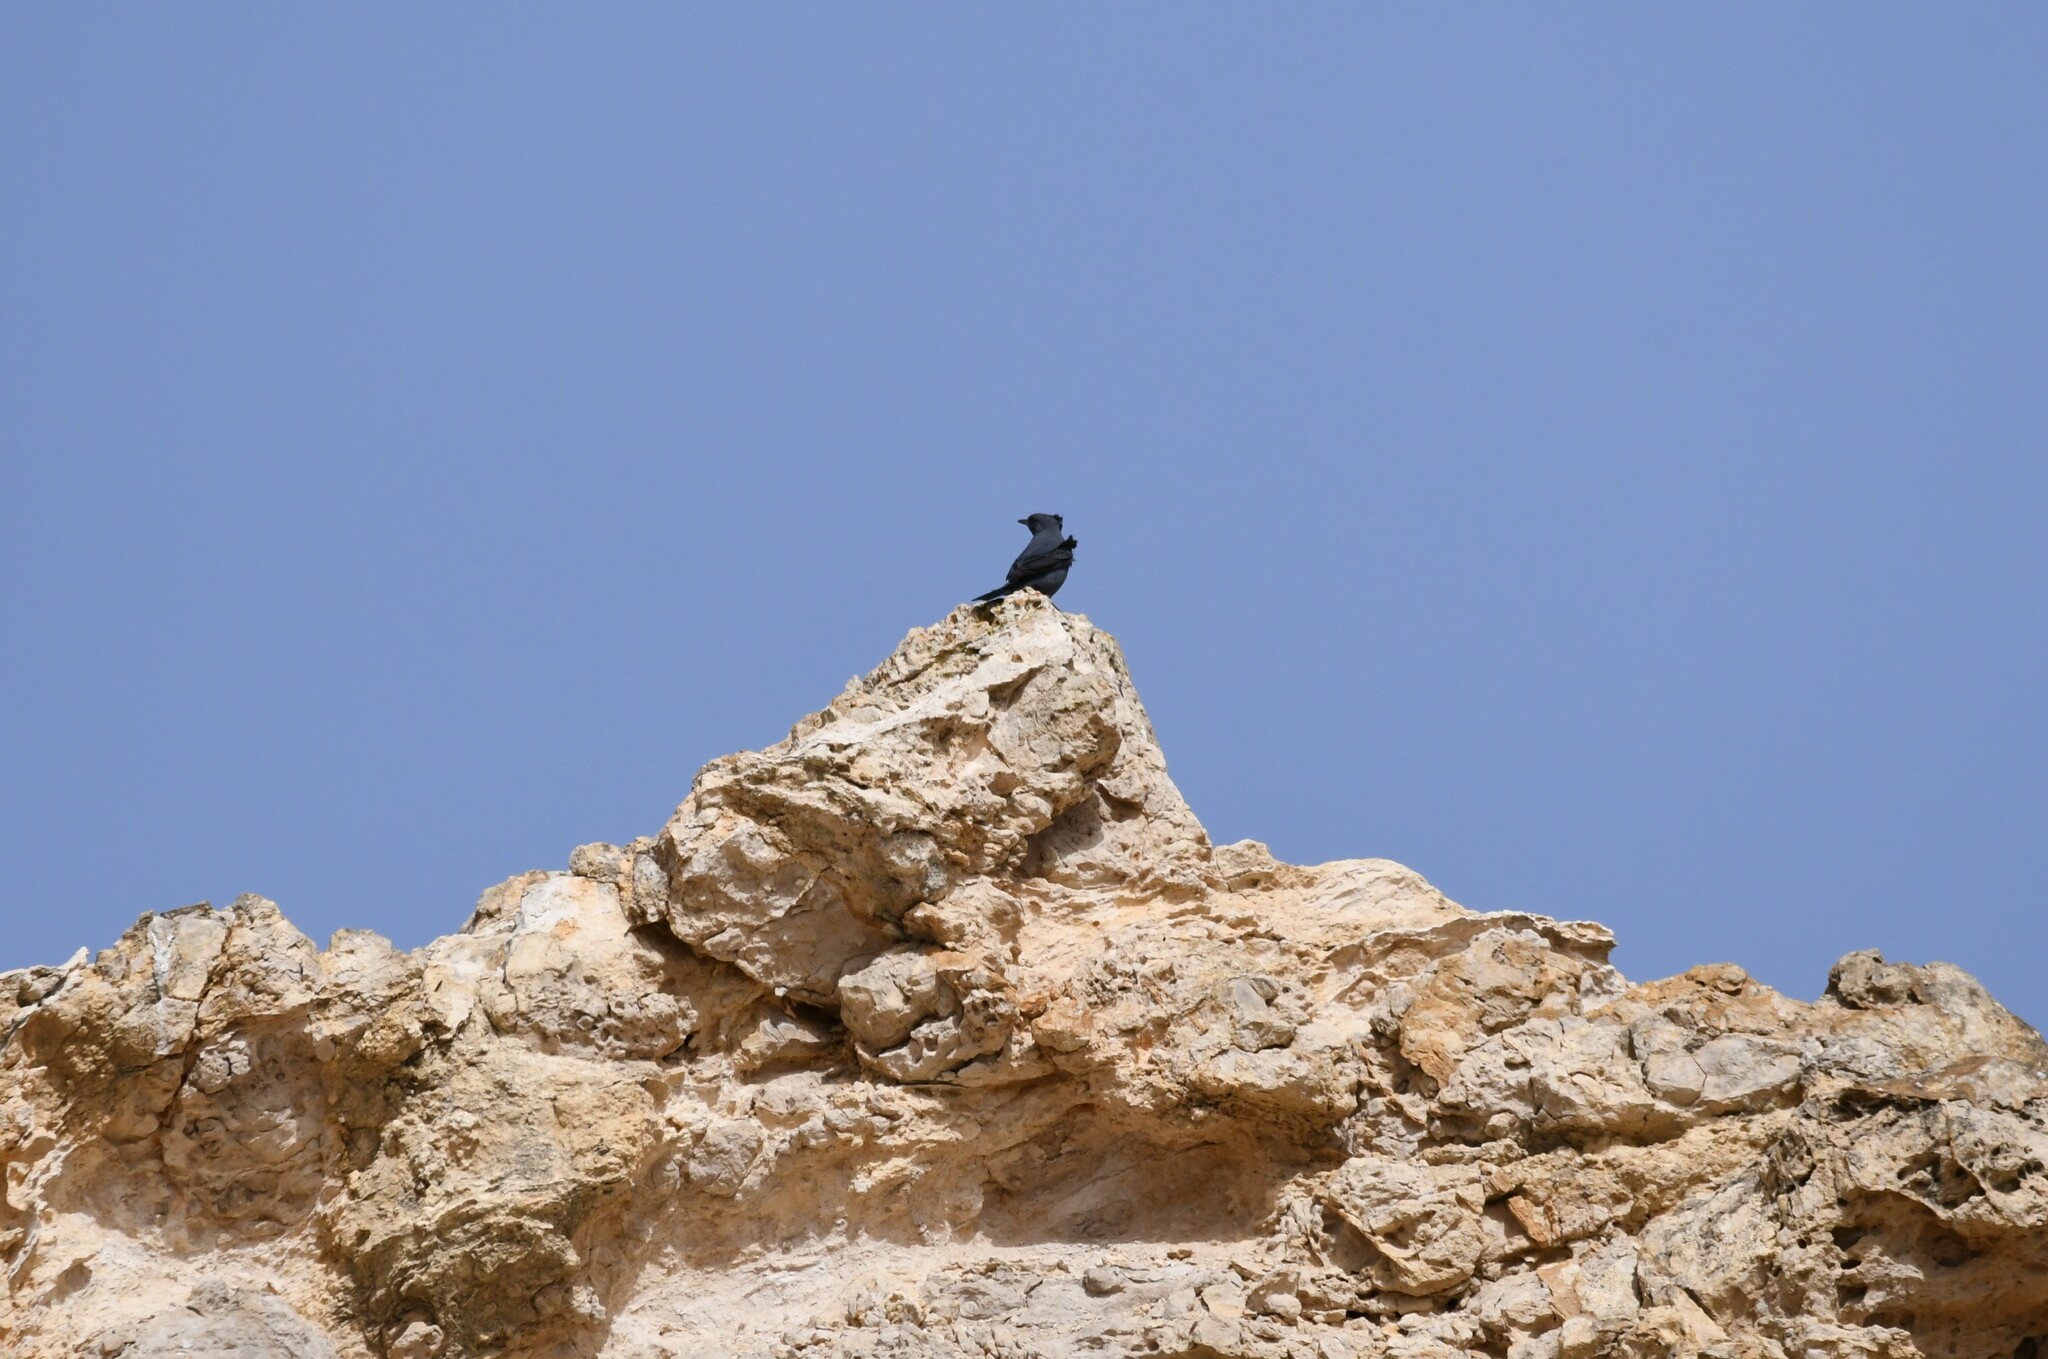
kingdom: Animalia
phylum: Chordata
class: Aves
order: Passeriformes
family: Muscicapidae
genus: Monticola
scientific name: Monticola solitarius
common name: Blue rock thrush
